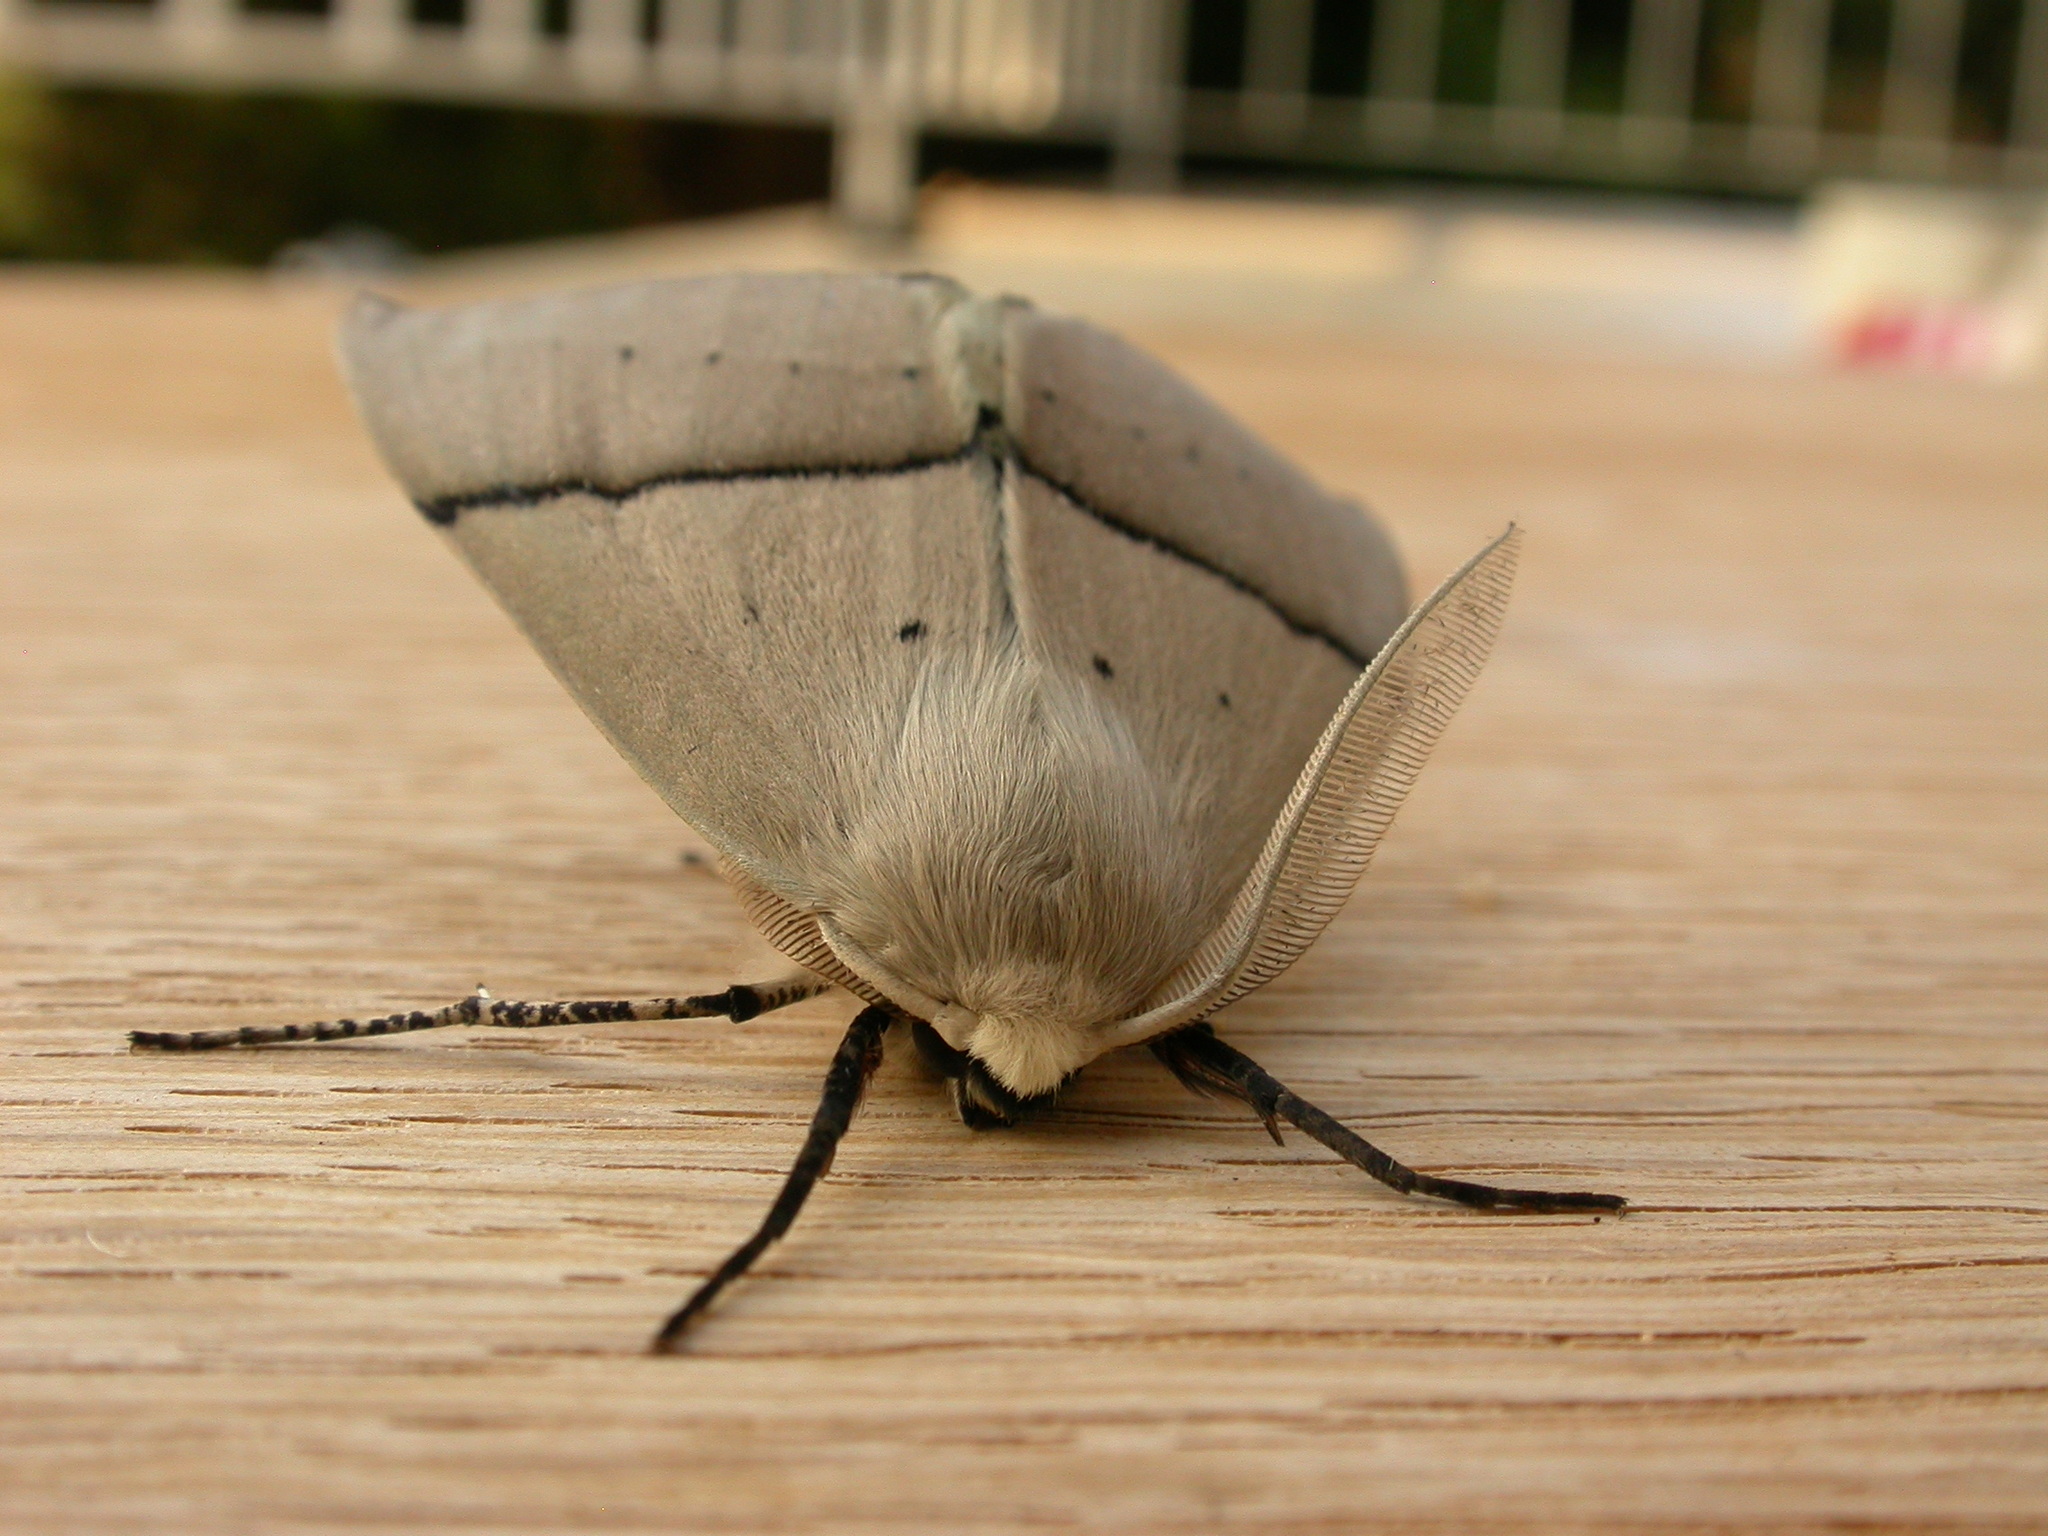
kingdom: Animalia
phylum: Arthropoda
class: Insecta
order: Lepidoptera
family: Geometridae
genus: Gastrophora
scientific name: Gastrophora henricaria
